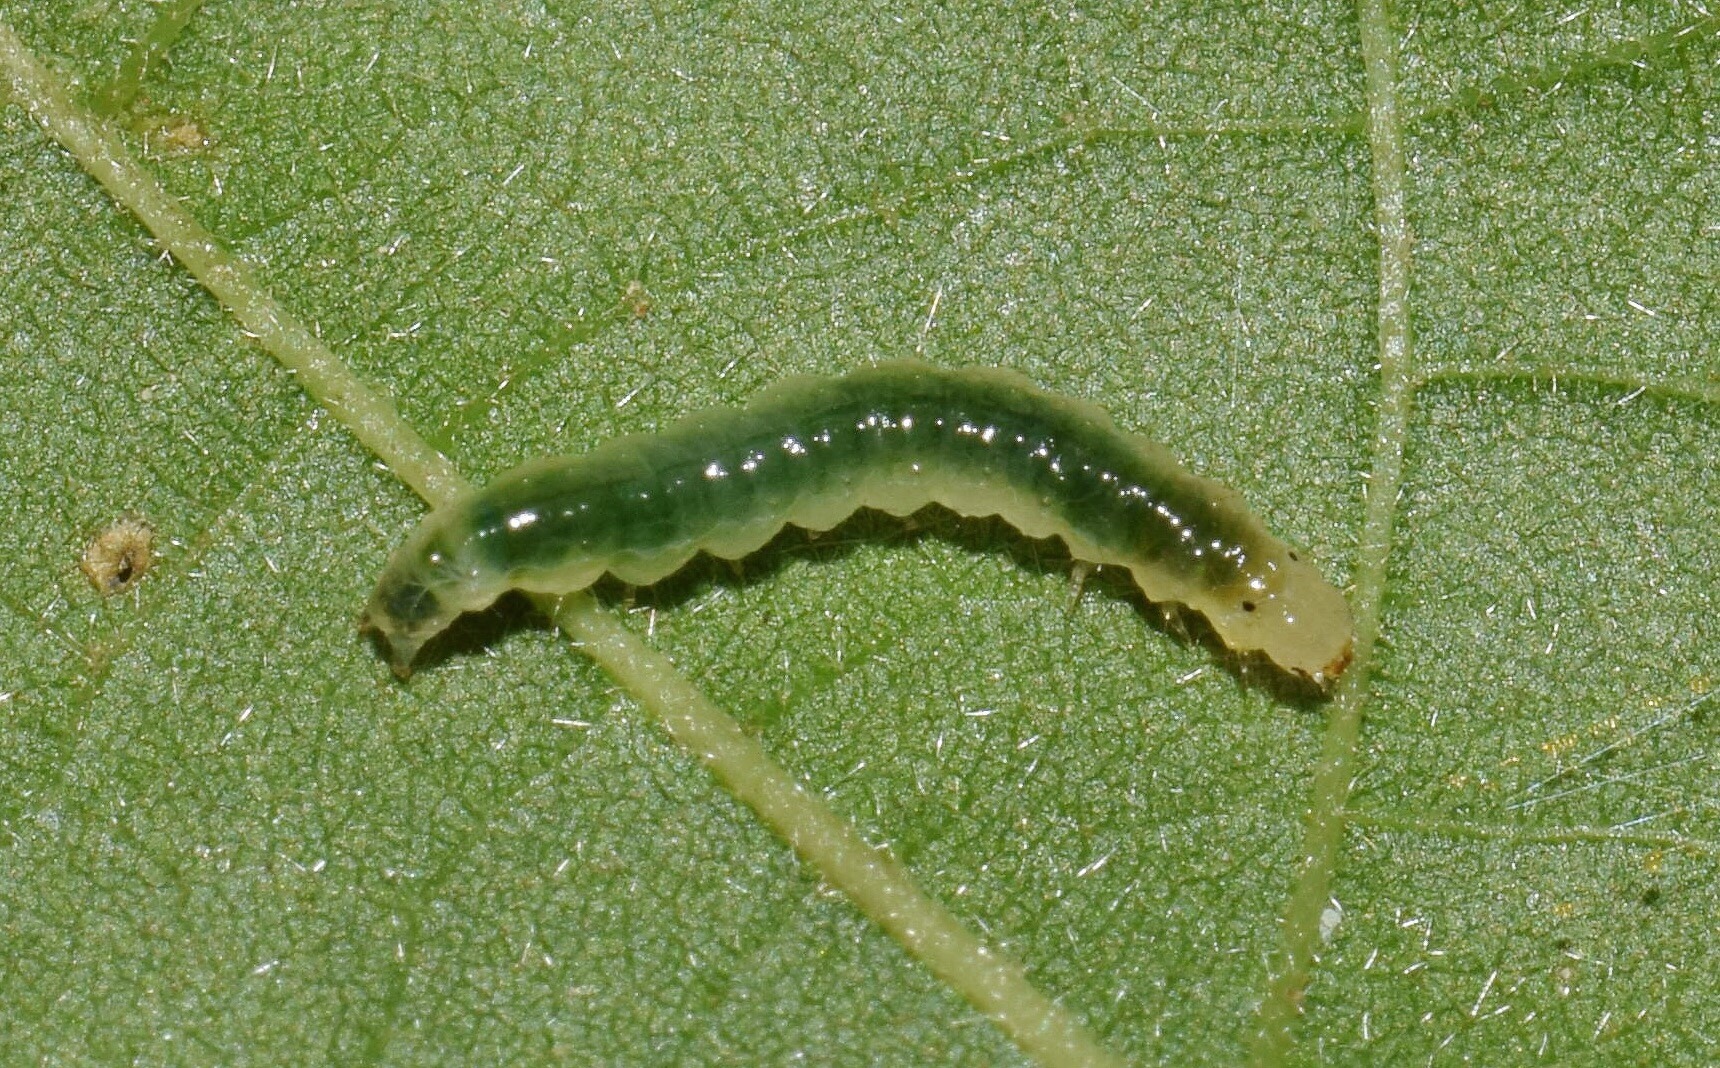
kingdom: Animalia
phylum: Arthropoda
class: Insecta
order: Lepidoptera
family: Crambidae
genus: Syllepte
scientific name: Syllepte polycymalis
